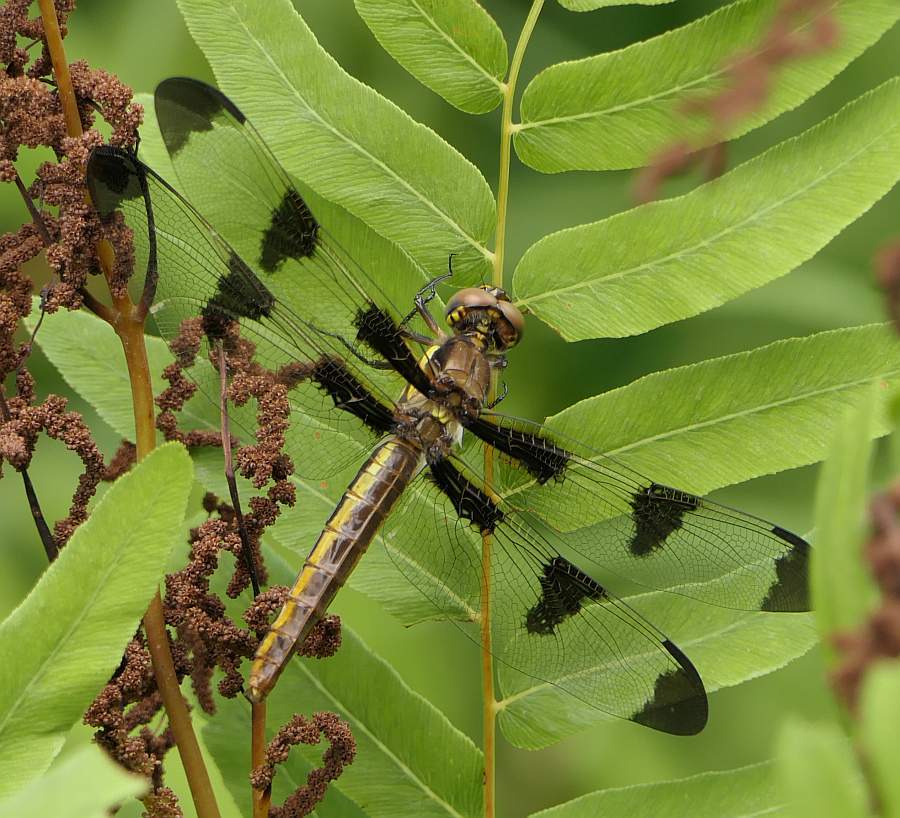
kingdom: Animalia
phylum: Arthropoda
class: Insecta
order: Odonata
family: Libellulidae
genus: Libellula
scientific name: Libellula pulchella
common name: Twelve-spotted skimmer
